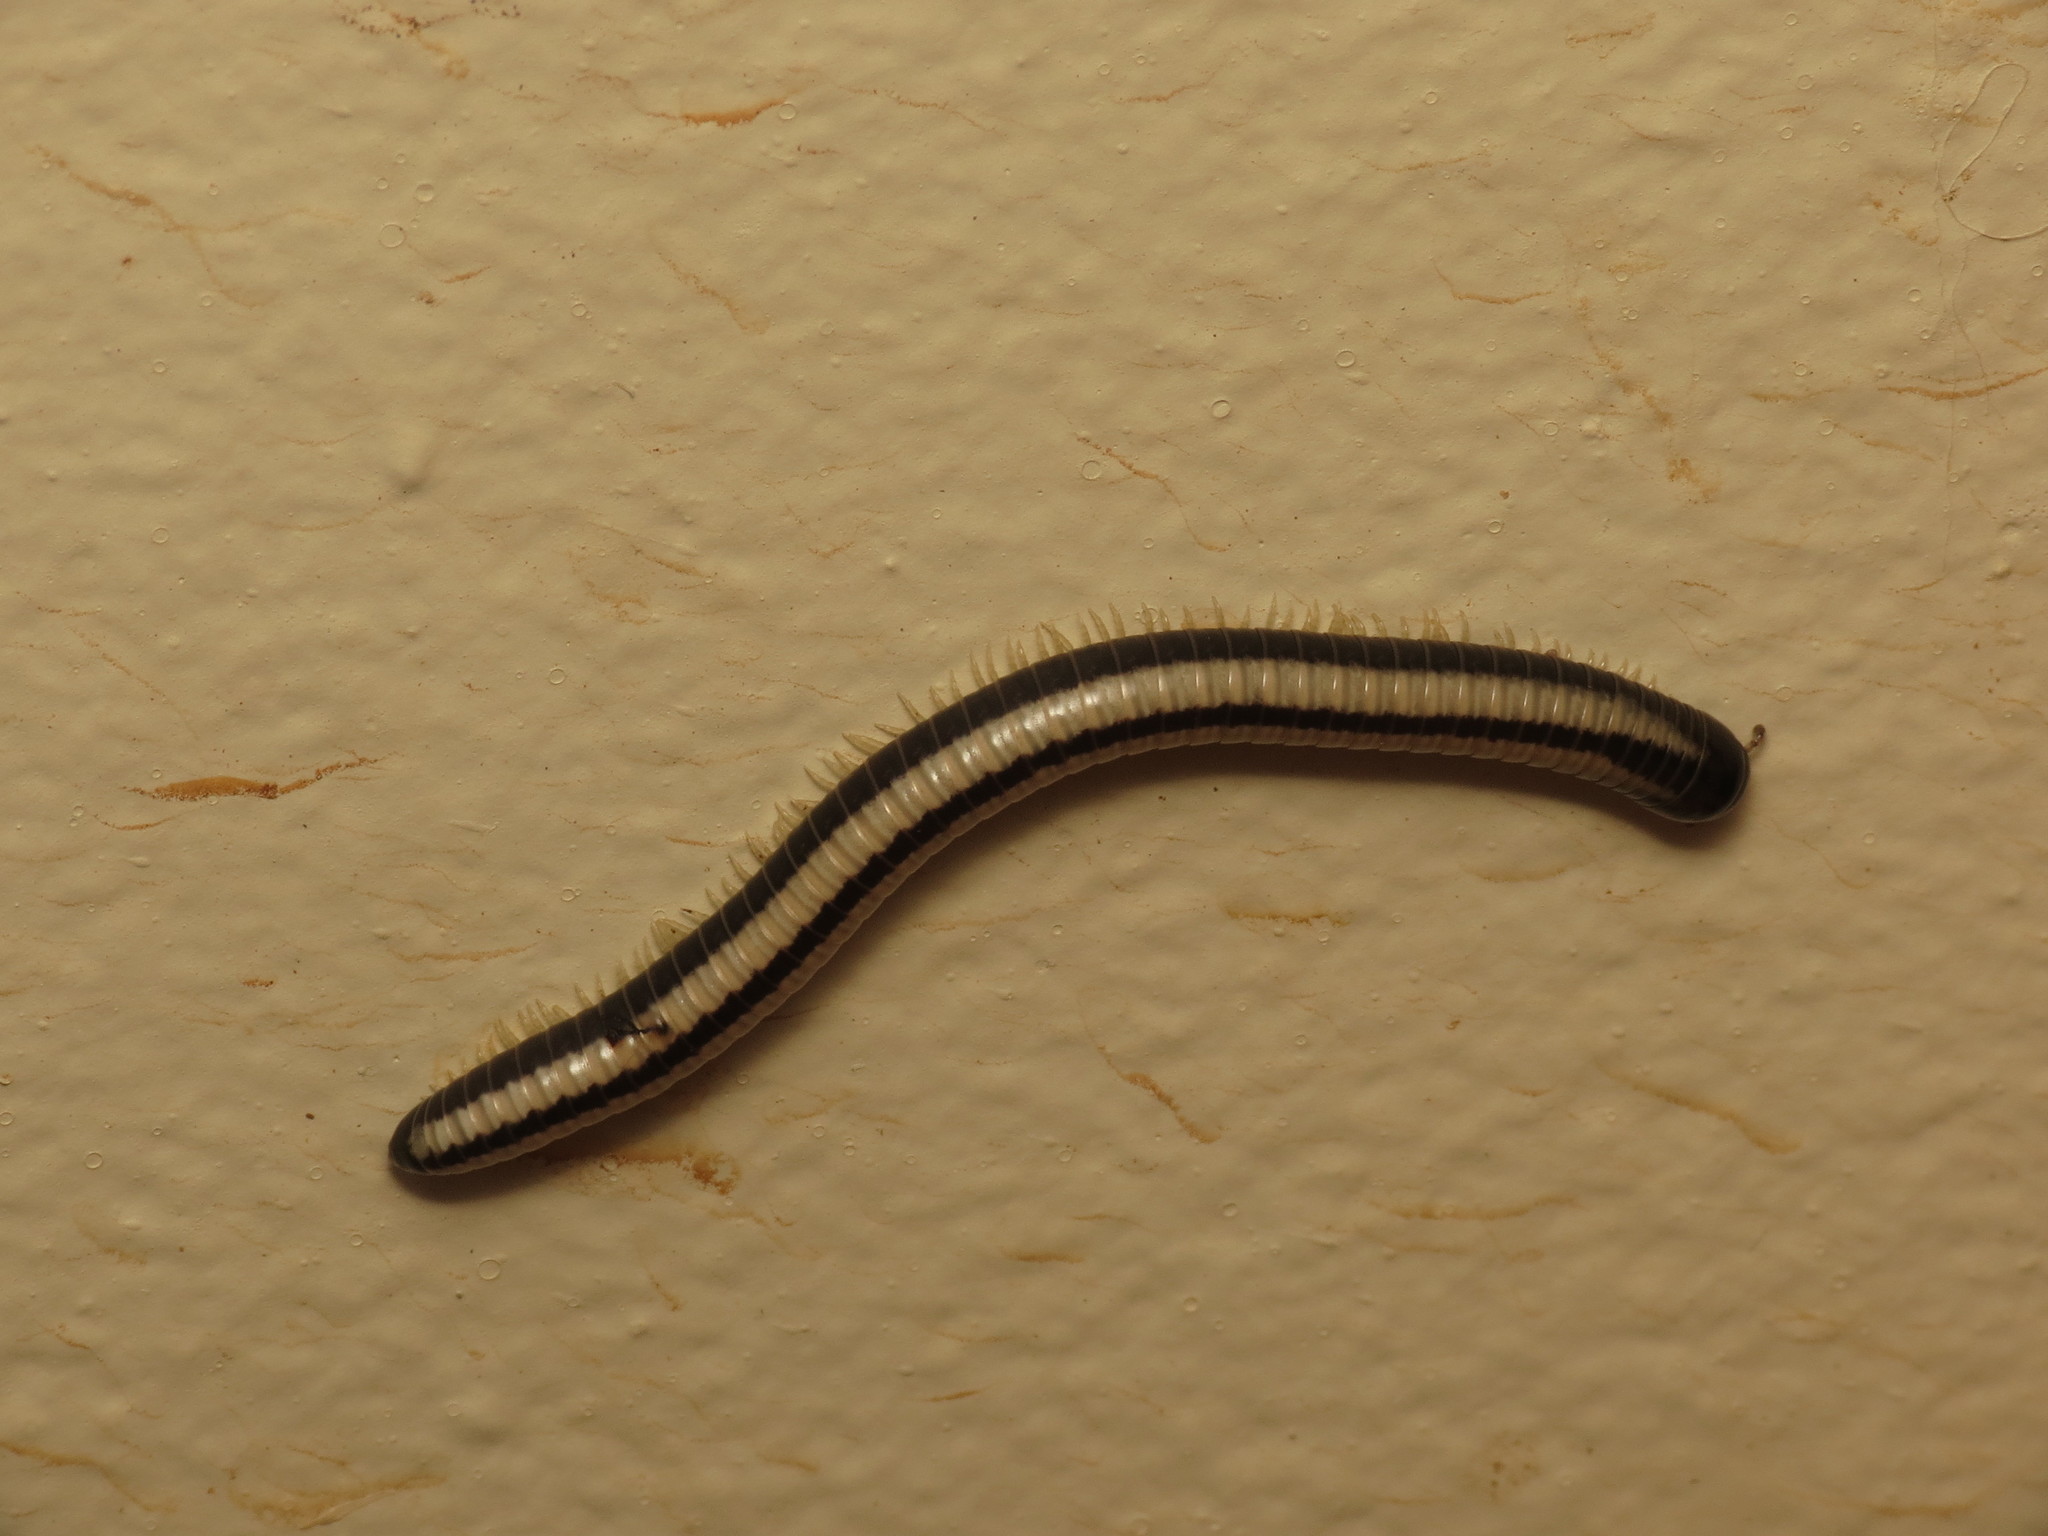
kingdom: Animalia
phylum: Arthropoda
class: Diplopoda
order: Spirobolida
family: Spirobolellidae
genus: Spirobolellus
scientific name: Spirobolellus immigrans
